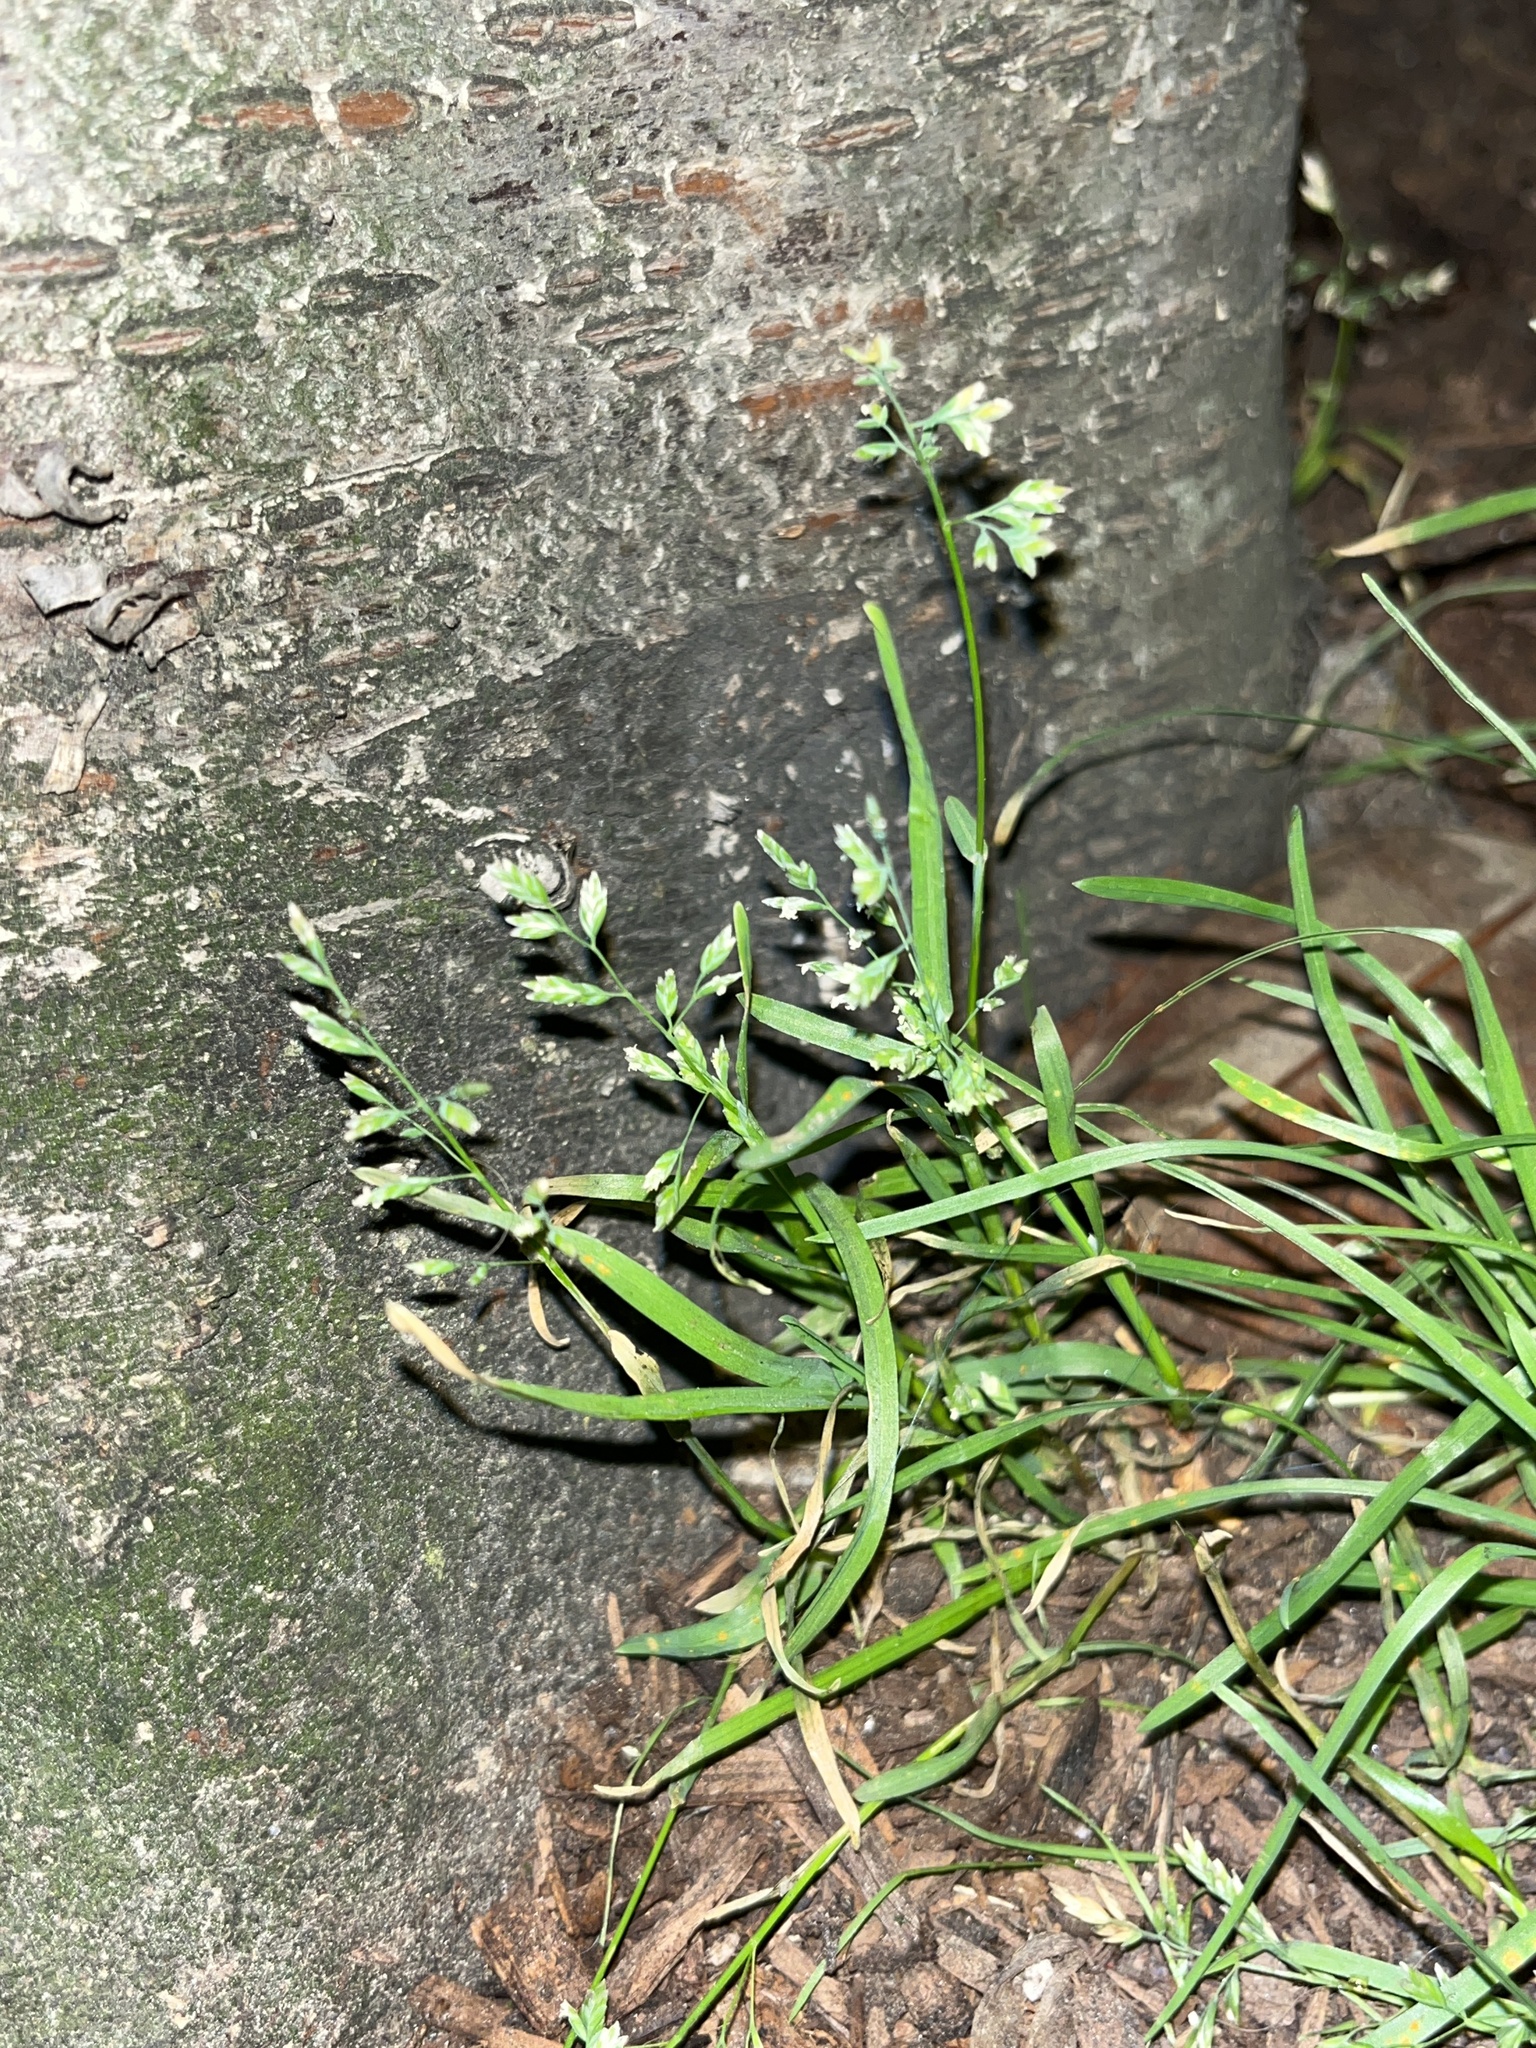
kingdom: Plantae
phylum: Tracheophyta
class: Liliopsida
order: Poales
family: Poaceae
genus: Poa
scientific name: Poa annua
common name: Annual bluegrass
